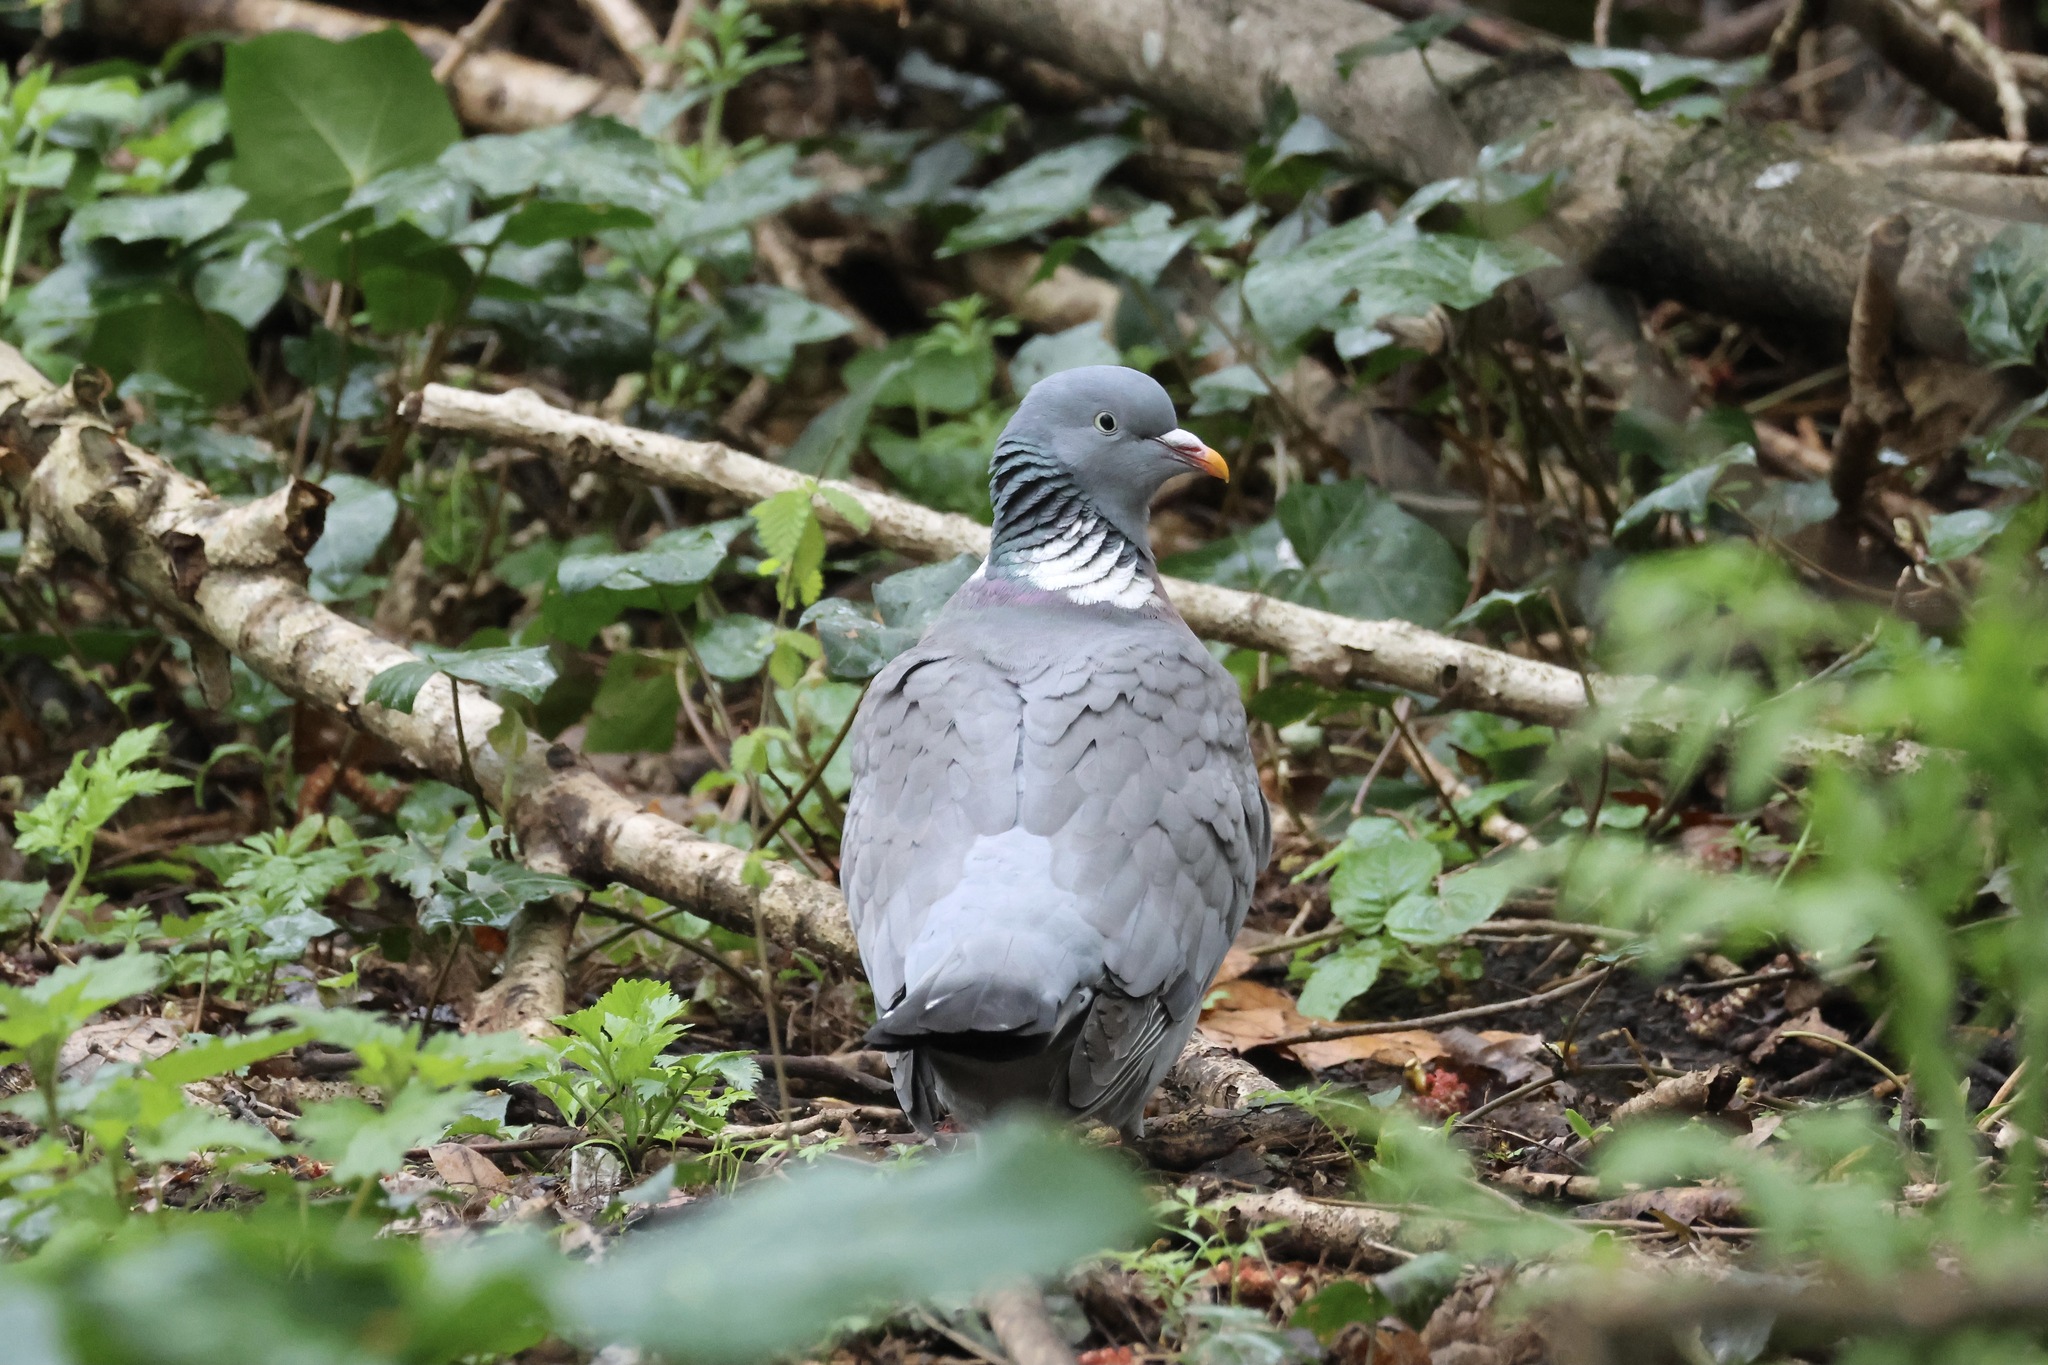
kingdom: Animalia
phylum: Chordata
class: Aves
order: Columbiformes
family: Columbidae
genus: Columba
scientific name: Columba palumbus
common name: Common wood pigeon
